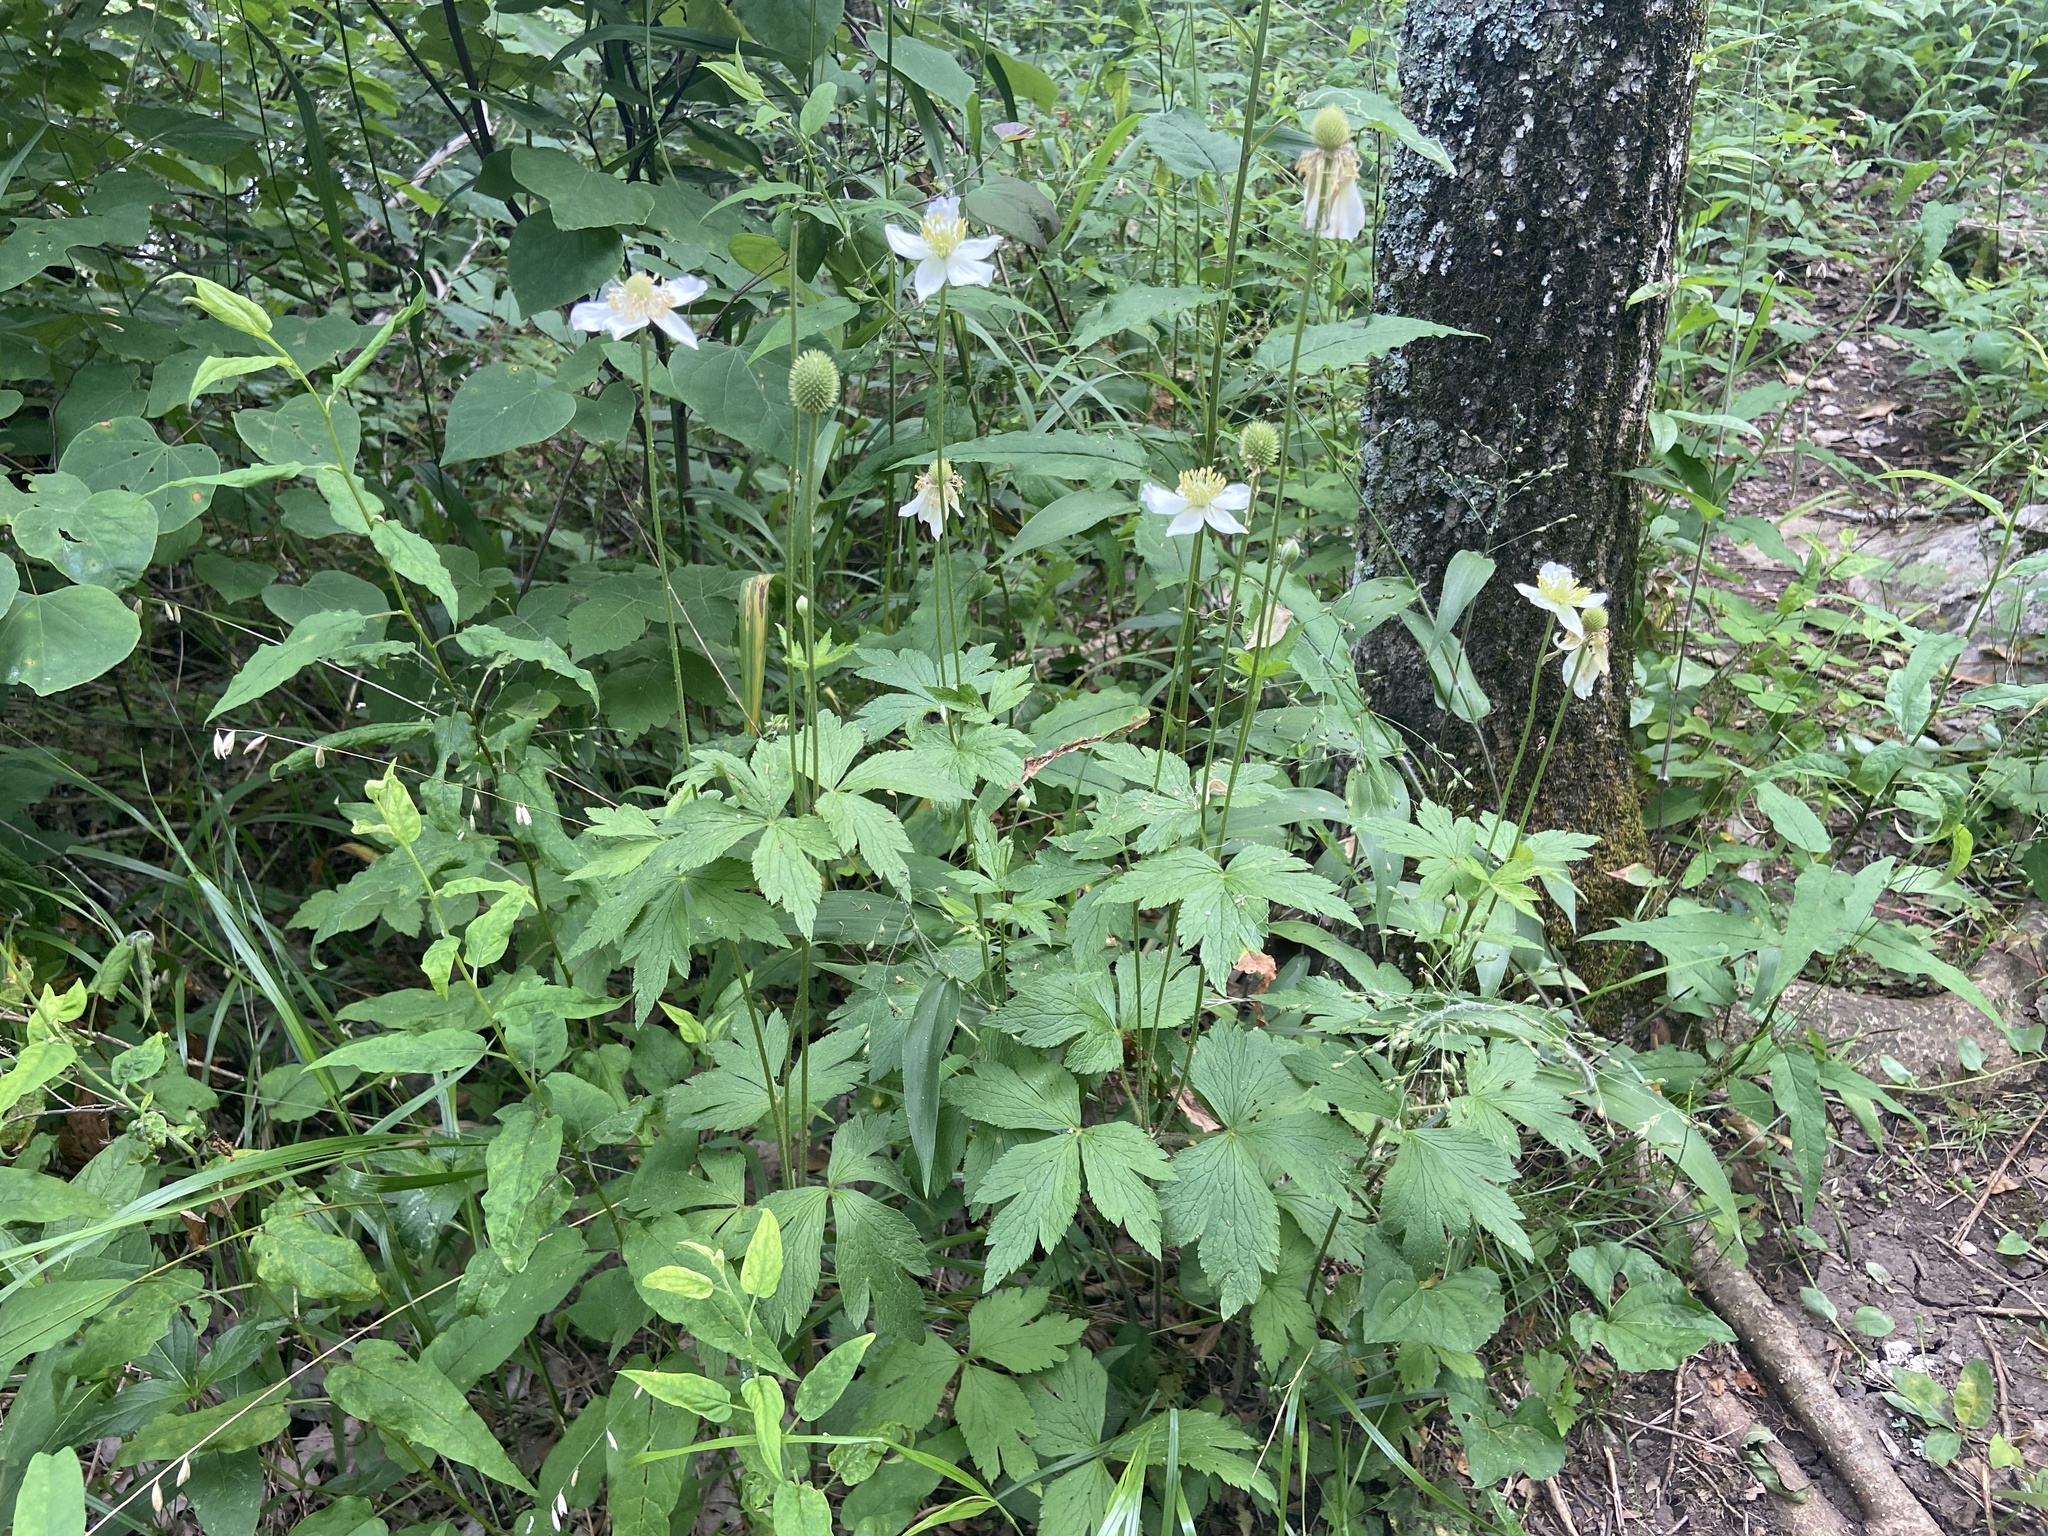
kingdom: Plantae
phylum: Tracheophyta
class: Magnoliopsida
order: Ranunculales
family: Ranunculaceae
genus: Anemone
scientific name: Anemone virginiana
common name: Tall anemone
